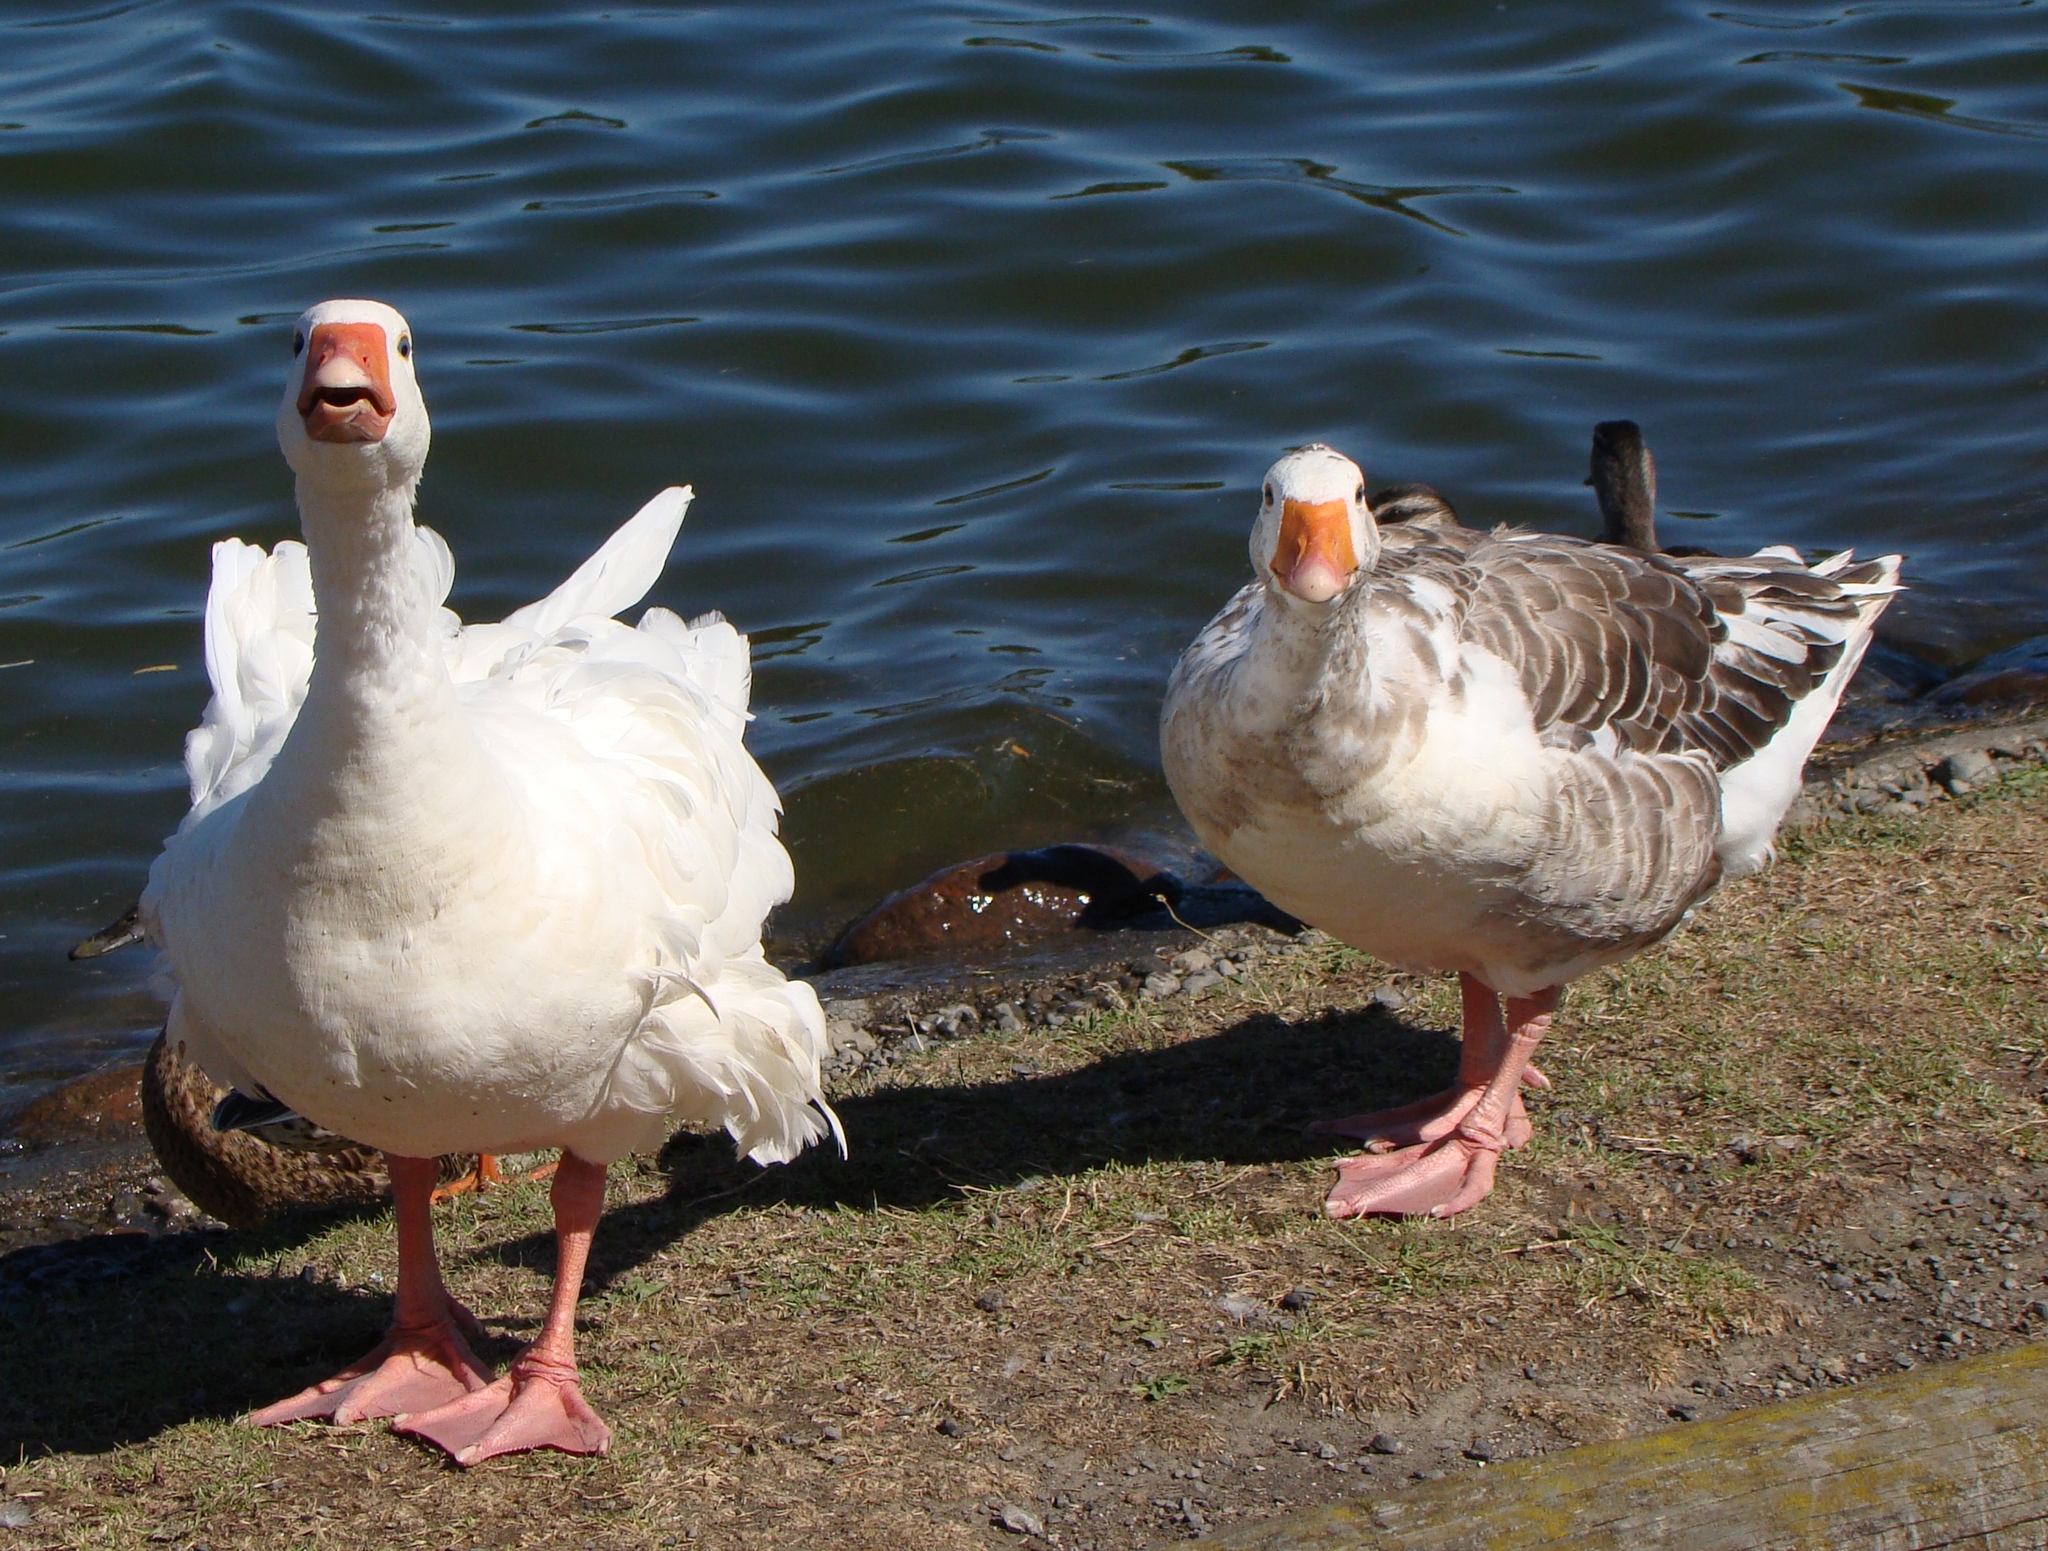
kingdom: Animalia
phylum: Chordata
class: Aves
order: Anseriformes
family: Anatidae
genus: Anser
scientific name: Anser anser
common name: Greylag goose
